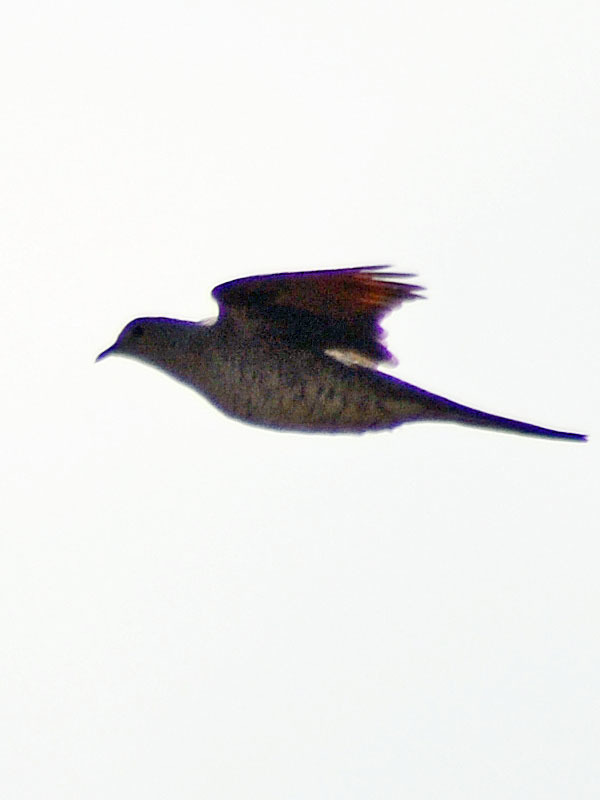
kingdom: Animalia
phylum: Chordata
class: Aves
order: Columbiformes
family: Columbidae
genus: Columbina
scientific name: Columbina inca
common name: Inca dove
